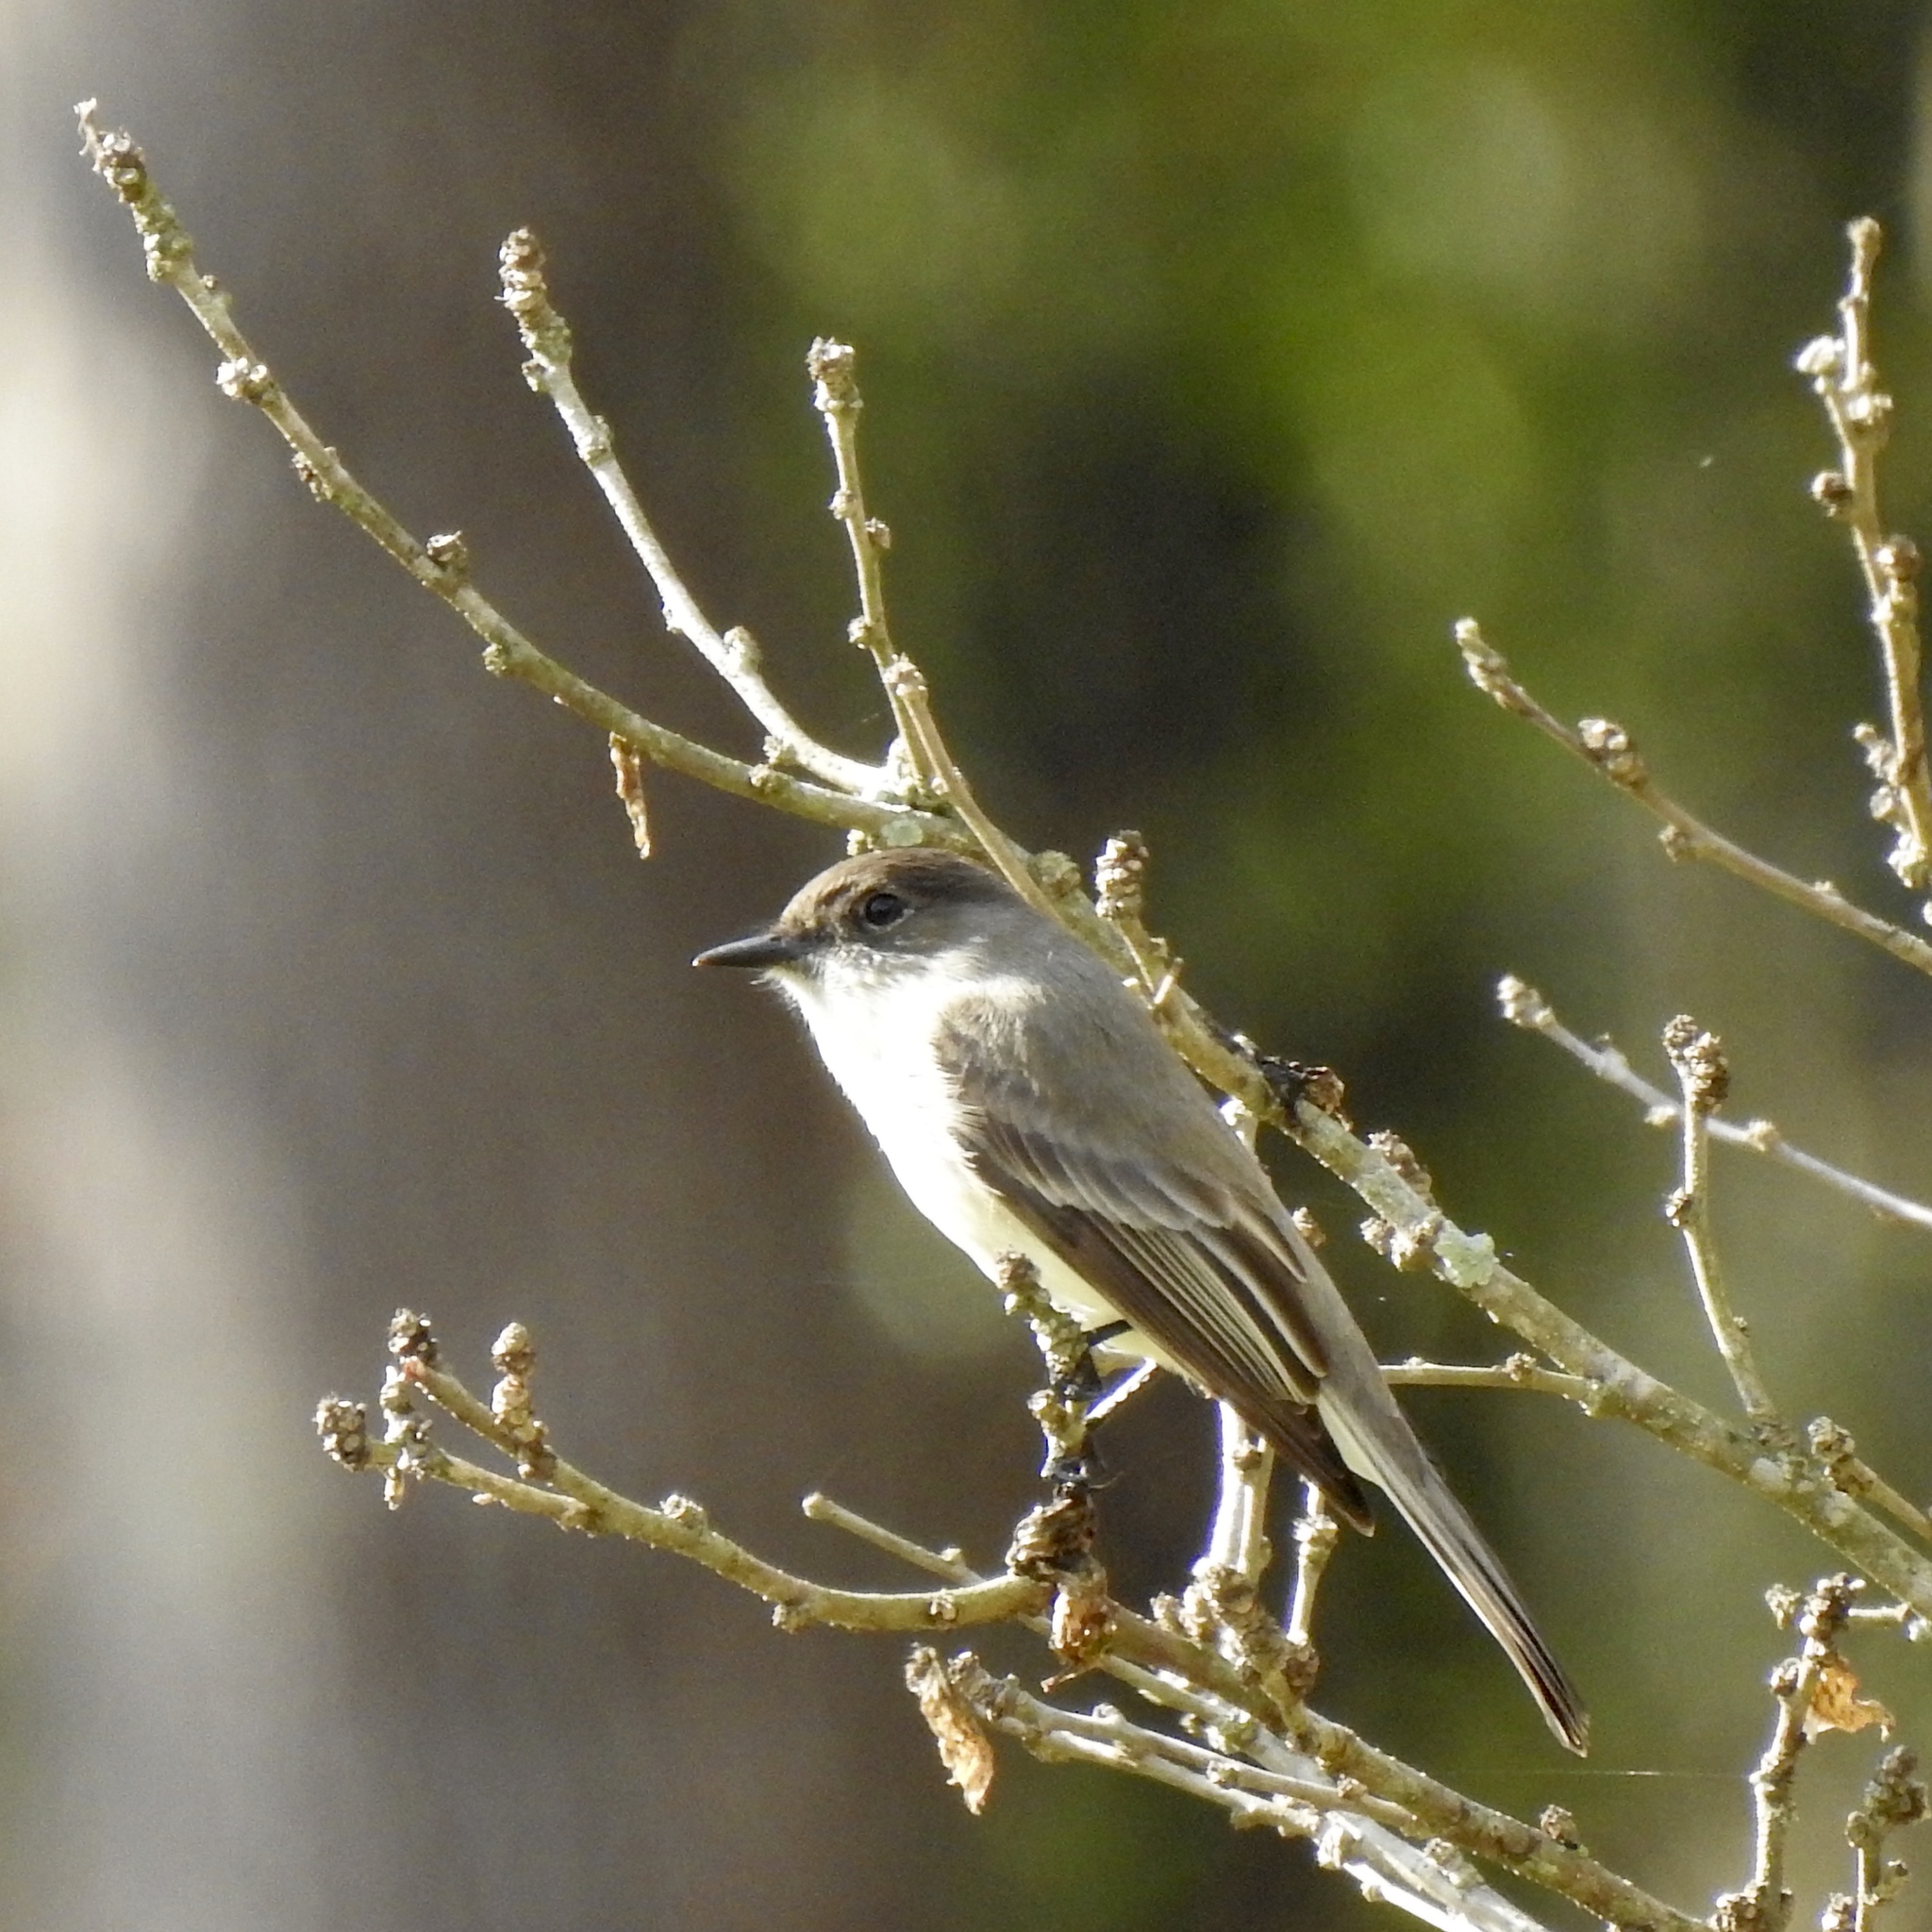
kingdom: Animalia
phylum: Chordata
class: Aves
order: Passeriformes
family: Tyrannidae
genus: Sayornis
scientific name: Sayornis phoebe
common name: Eastern phoebe
